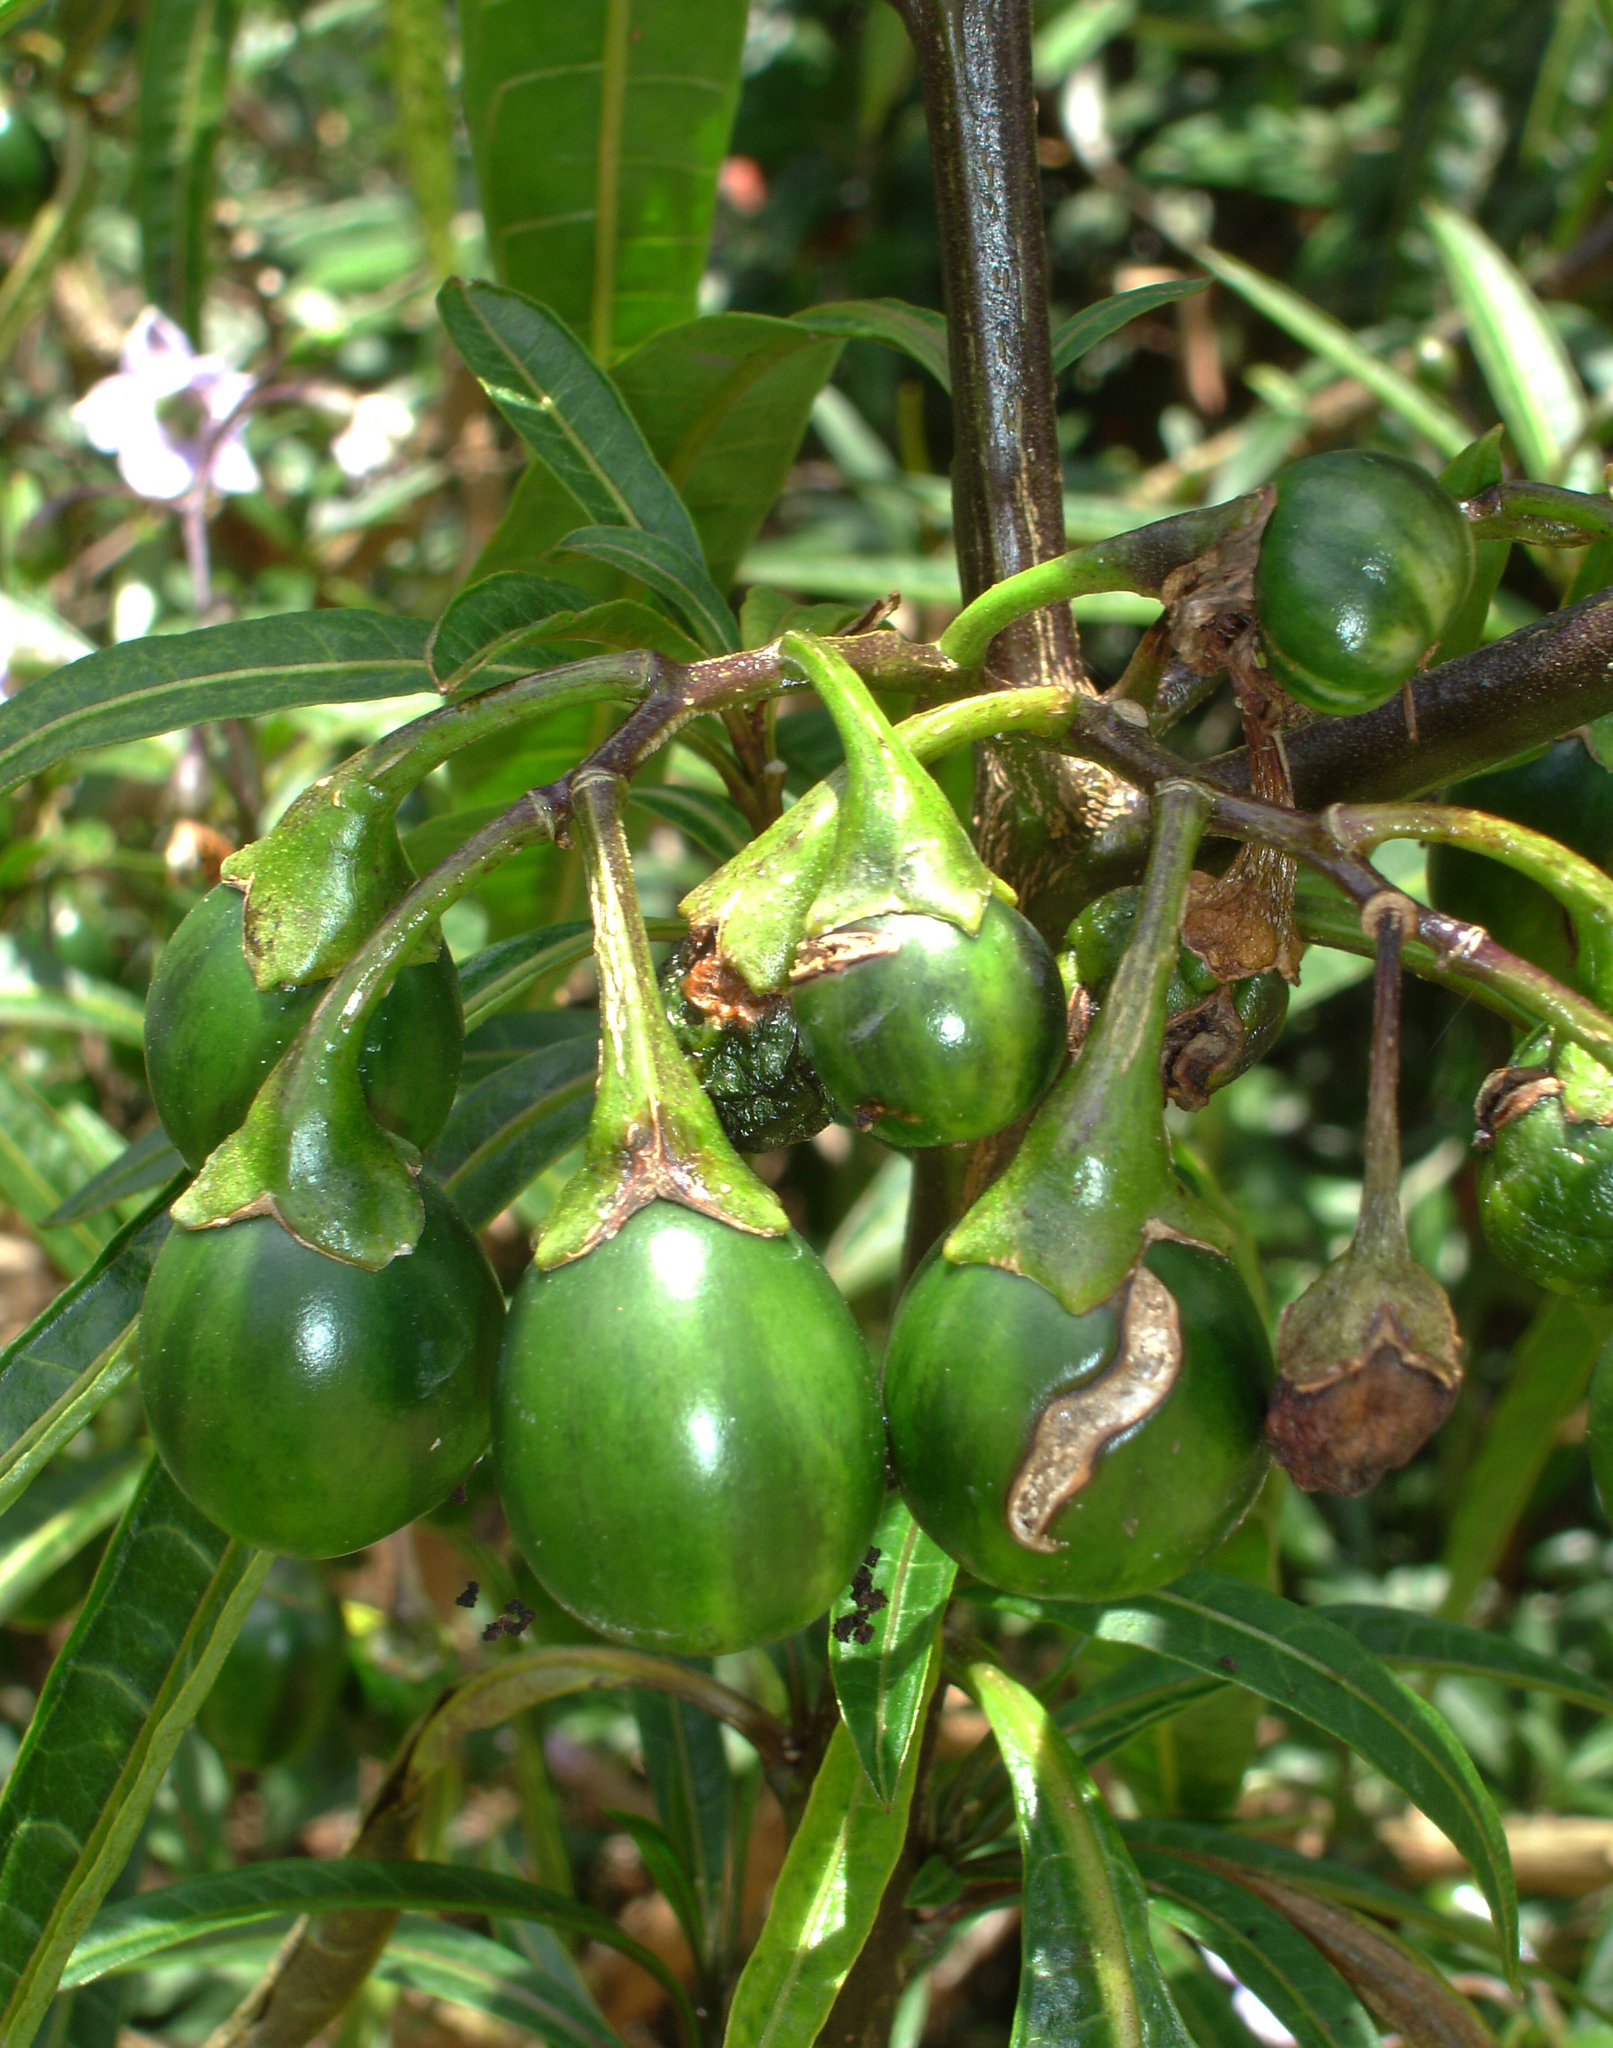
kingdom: Plantae
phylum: Tracheophyta
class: Magnoliopsida
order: Solanales
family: Solanaceae
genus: Solanum
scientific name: Solanum aviculare
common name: New zealand nightshade
